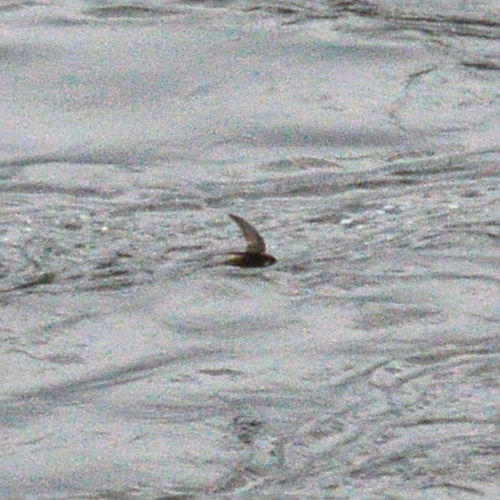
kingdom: Animalia
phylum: Chordata
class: Aves
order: Apodiformes
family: Apodidae
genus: Apus
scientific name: Apus apus
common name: Common swift
